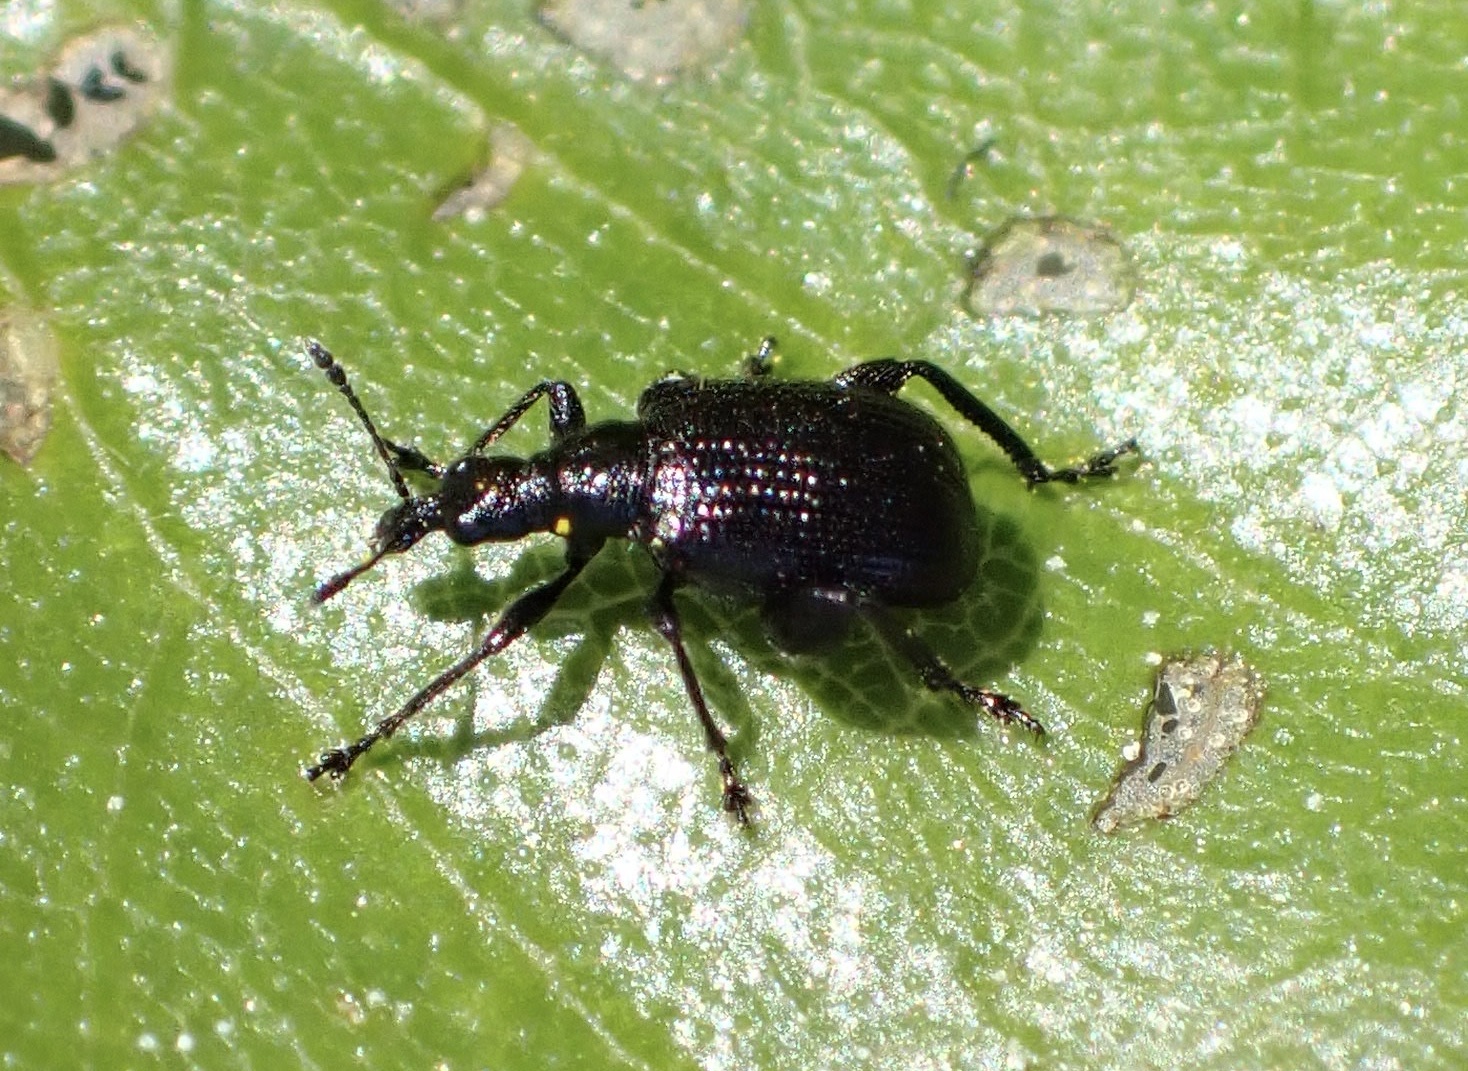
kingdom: Animalia
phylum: Arthropoda
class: Insecta
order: Coleoptera
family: Attelabidae
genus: Deporaus
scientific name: Deporaus betulae
